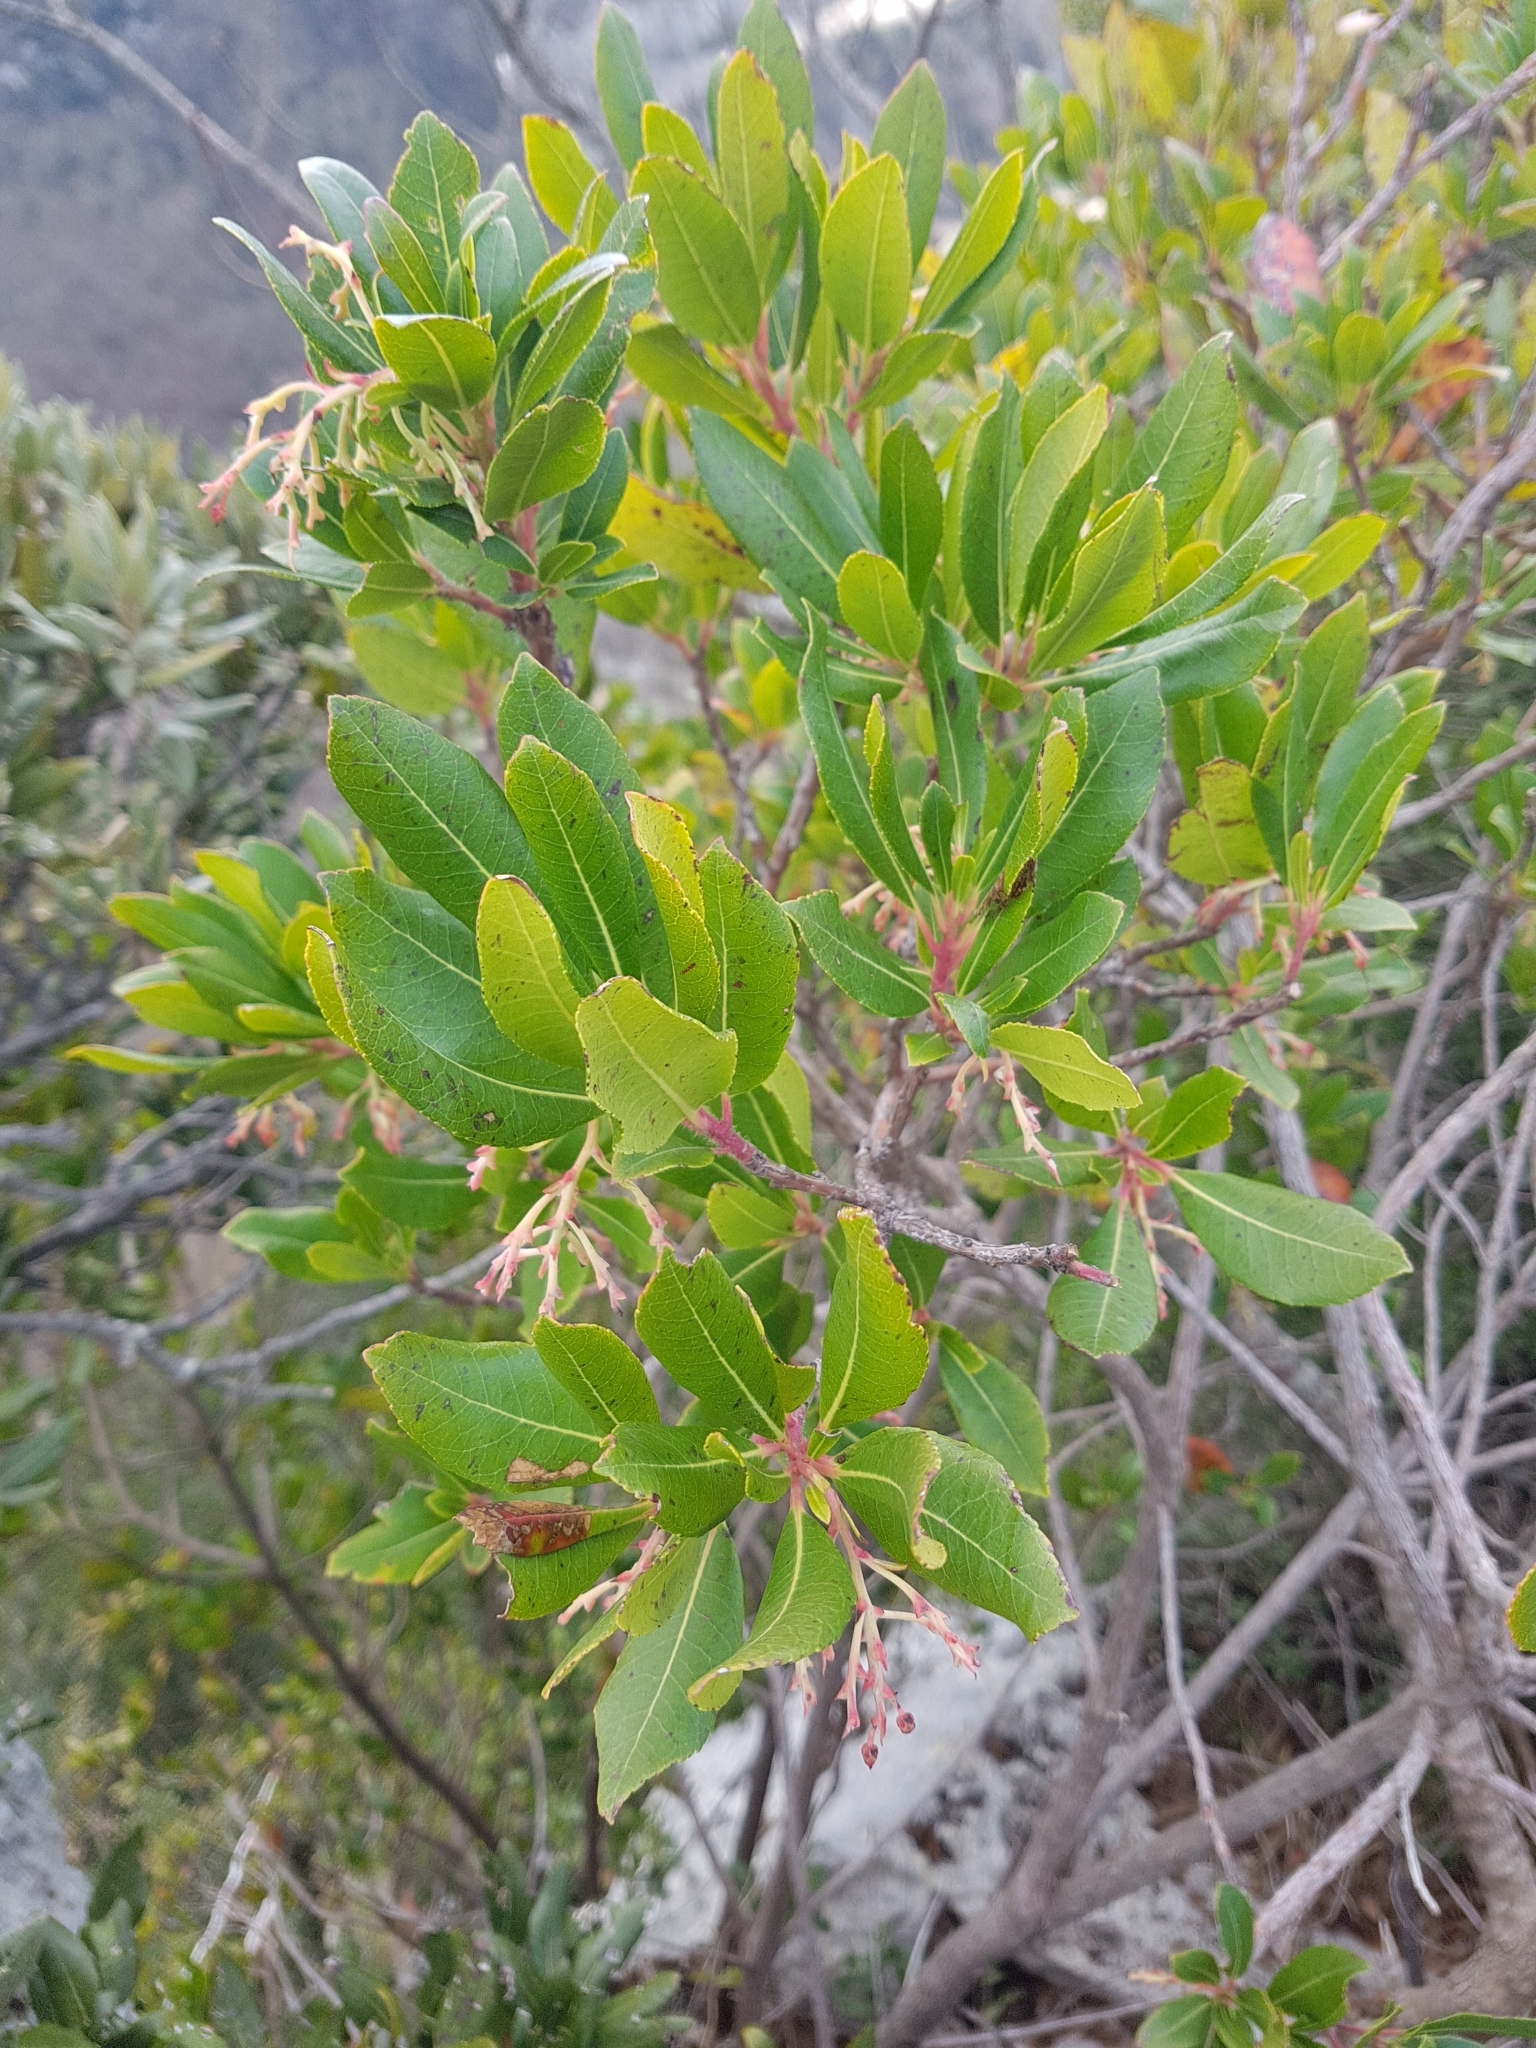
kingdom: Plantae
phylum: Tracheophyta
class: Magnoliopsida
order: Ericales
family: Ericaceae
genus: Arbutus
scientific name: Arbutus unedo
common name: Strawberry-tree
